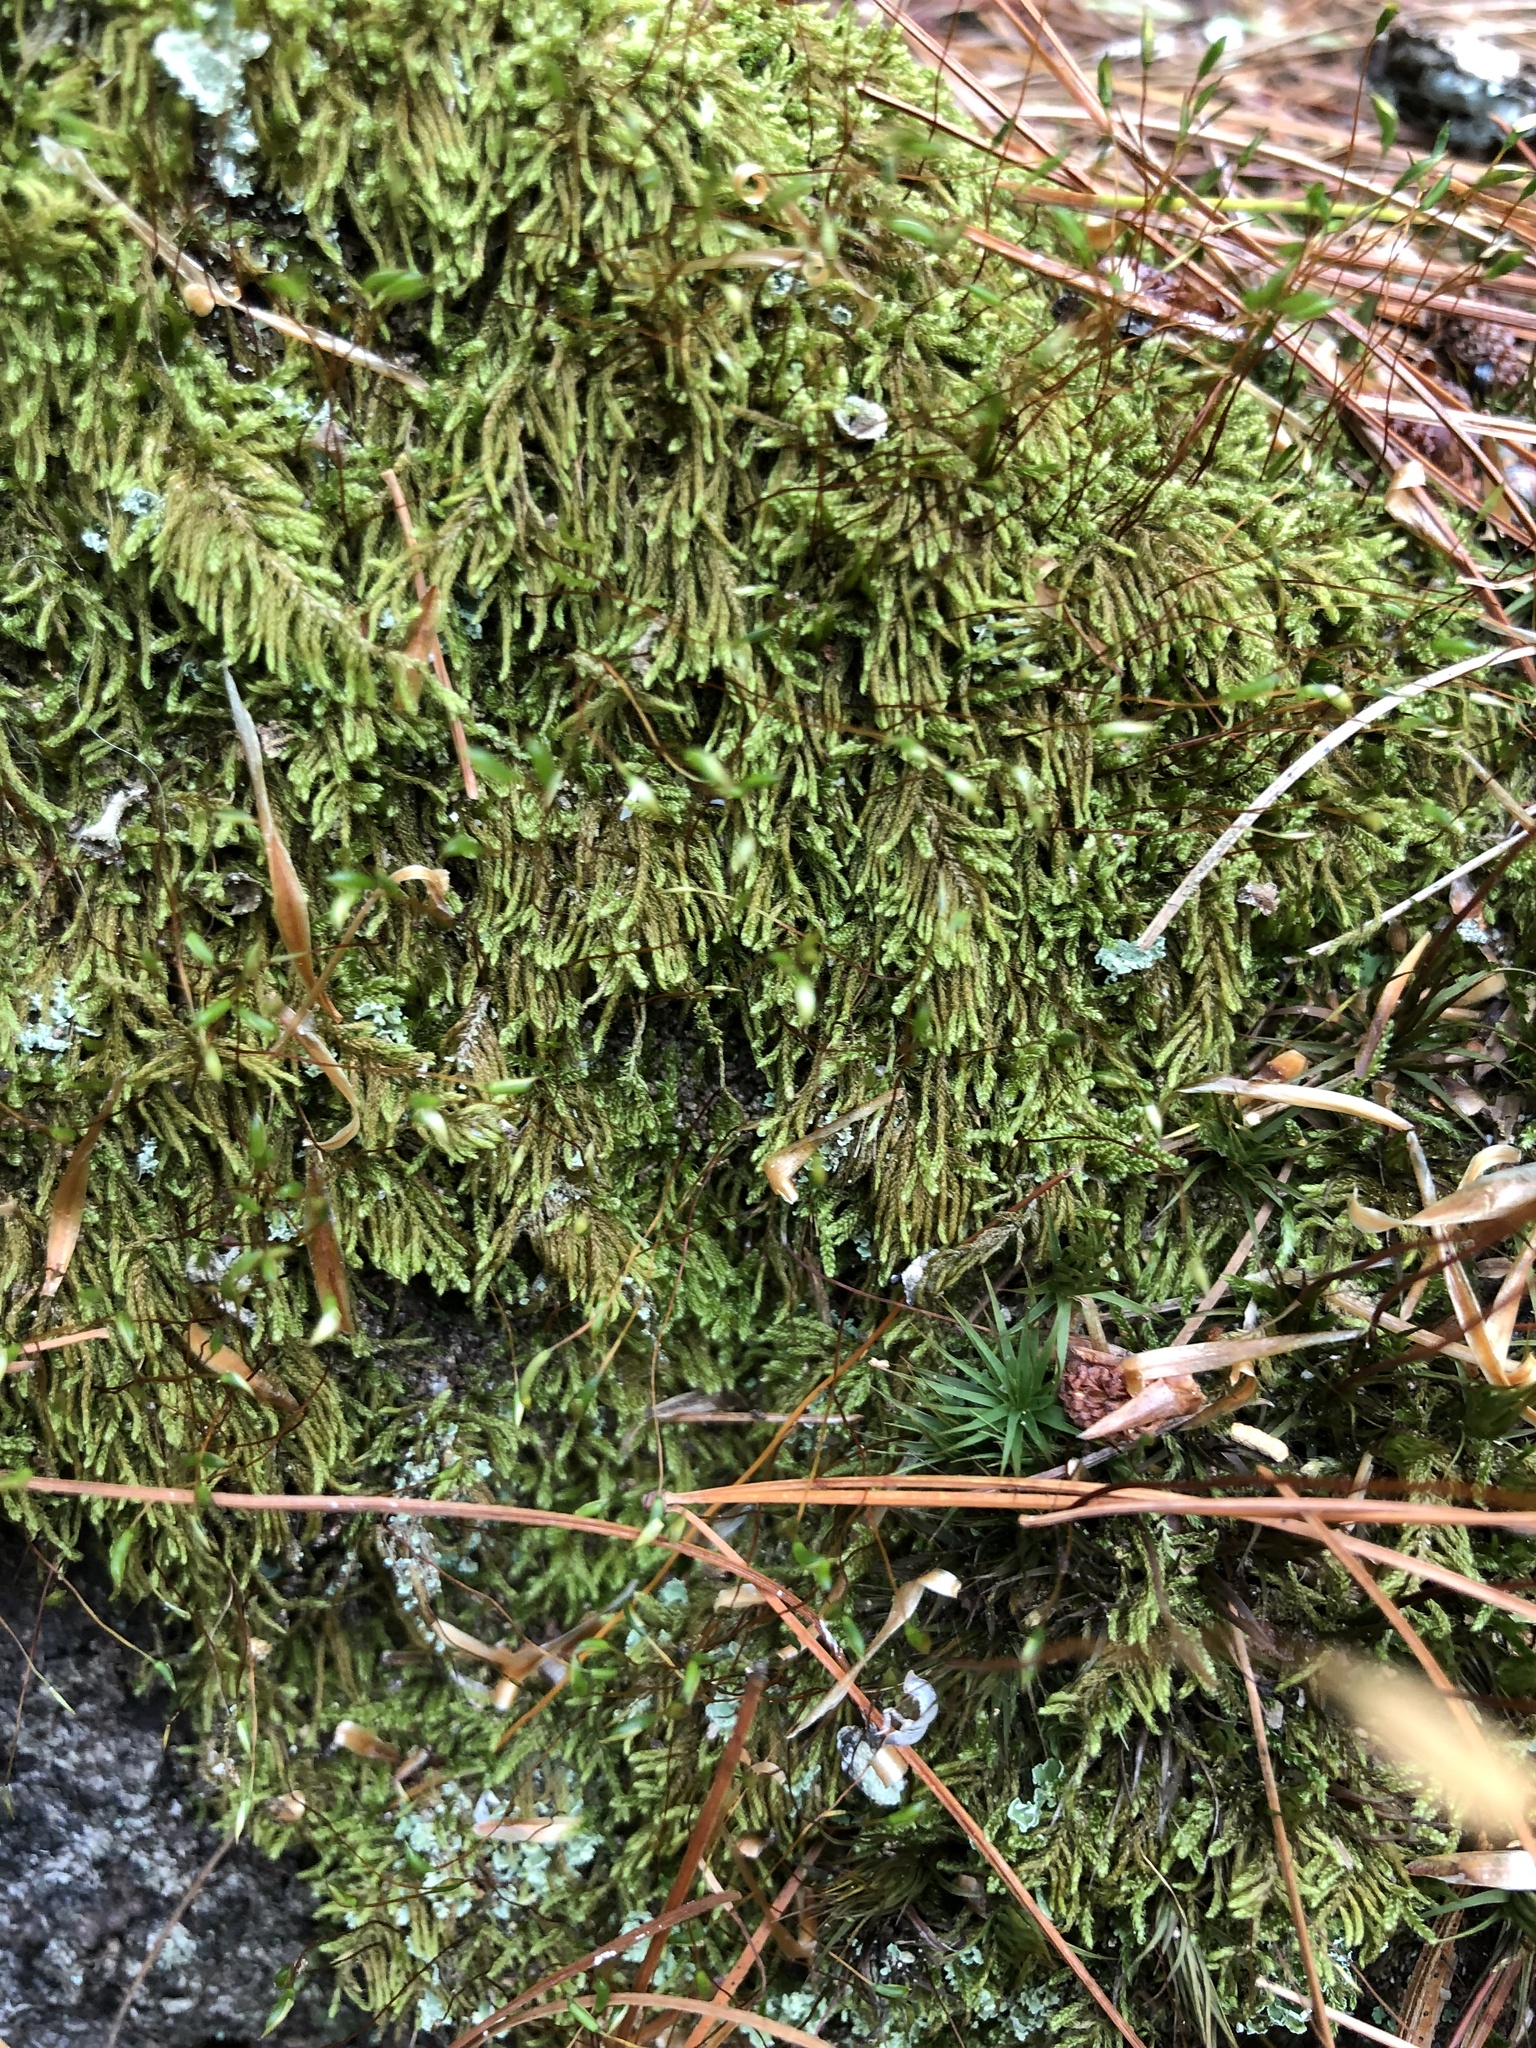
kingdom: Plantae
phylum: Bryophyta
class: Bryopsida
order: Hypnales
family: Jocheniaceae
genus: Jochenia
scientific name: Jochenia pallescens
